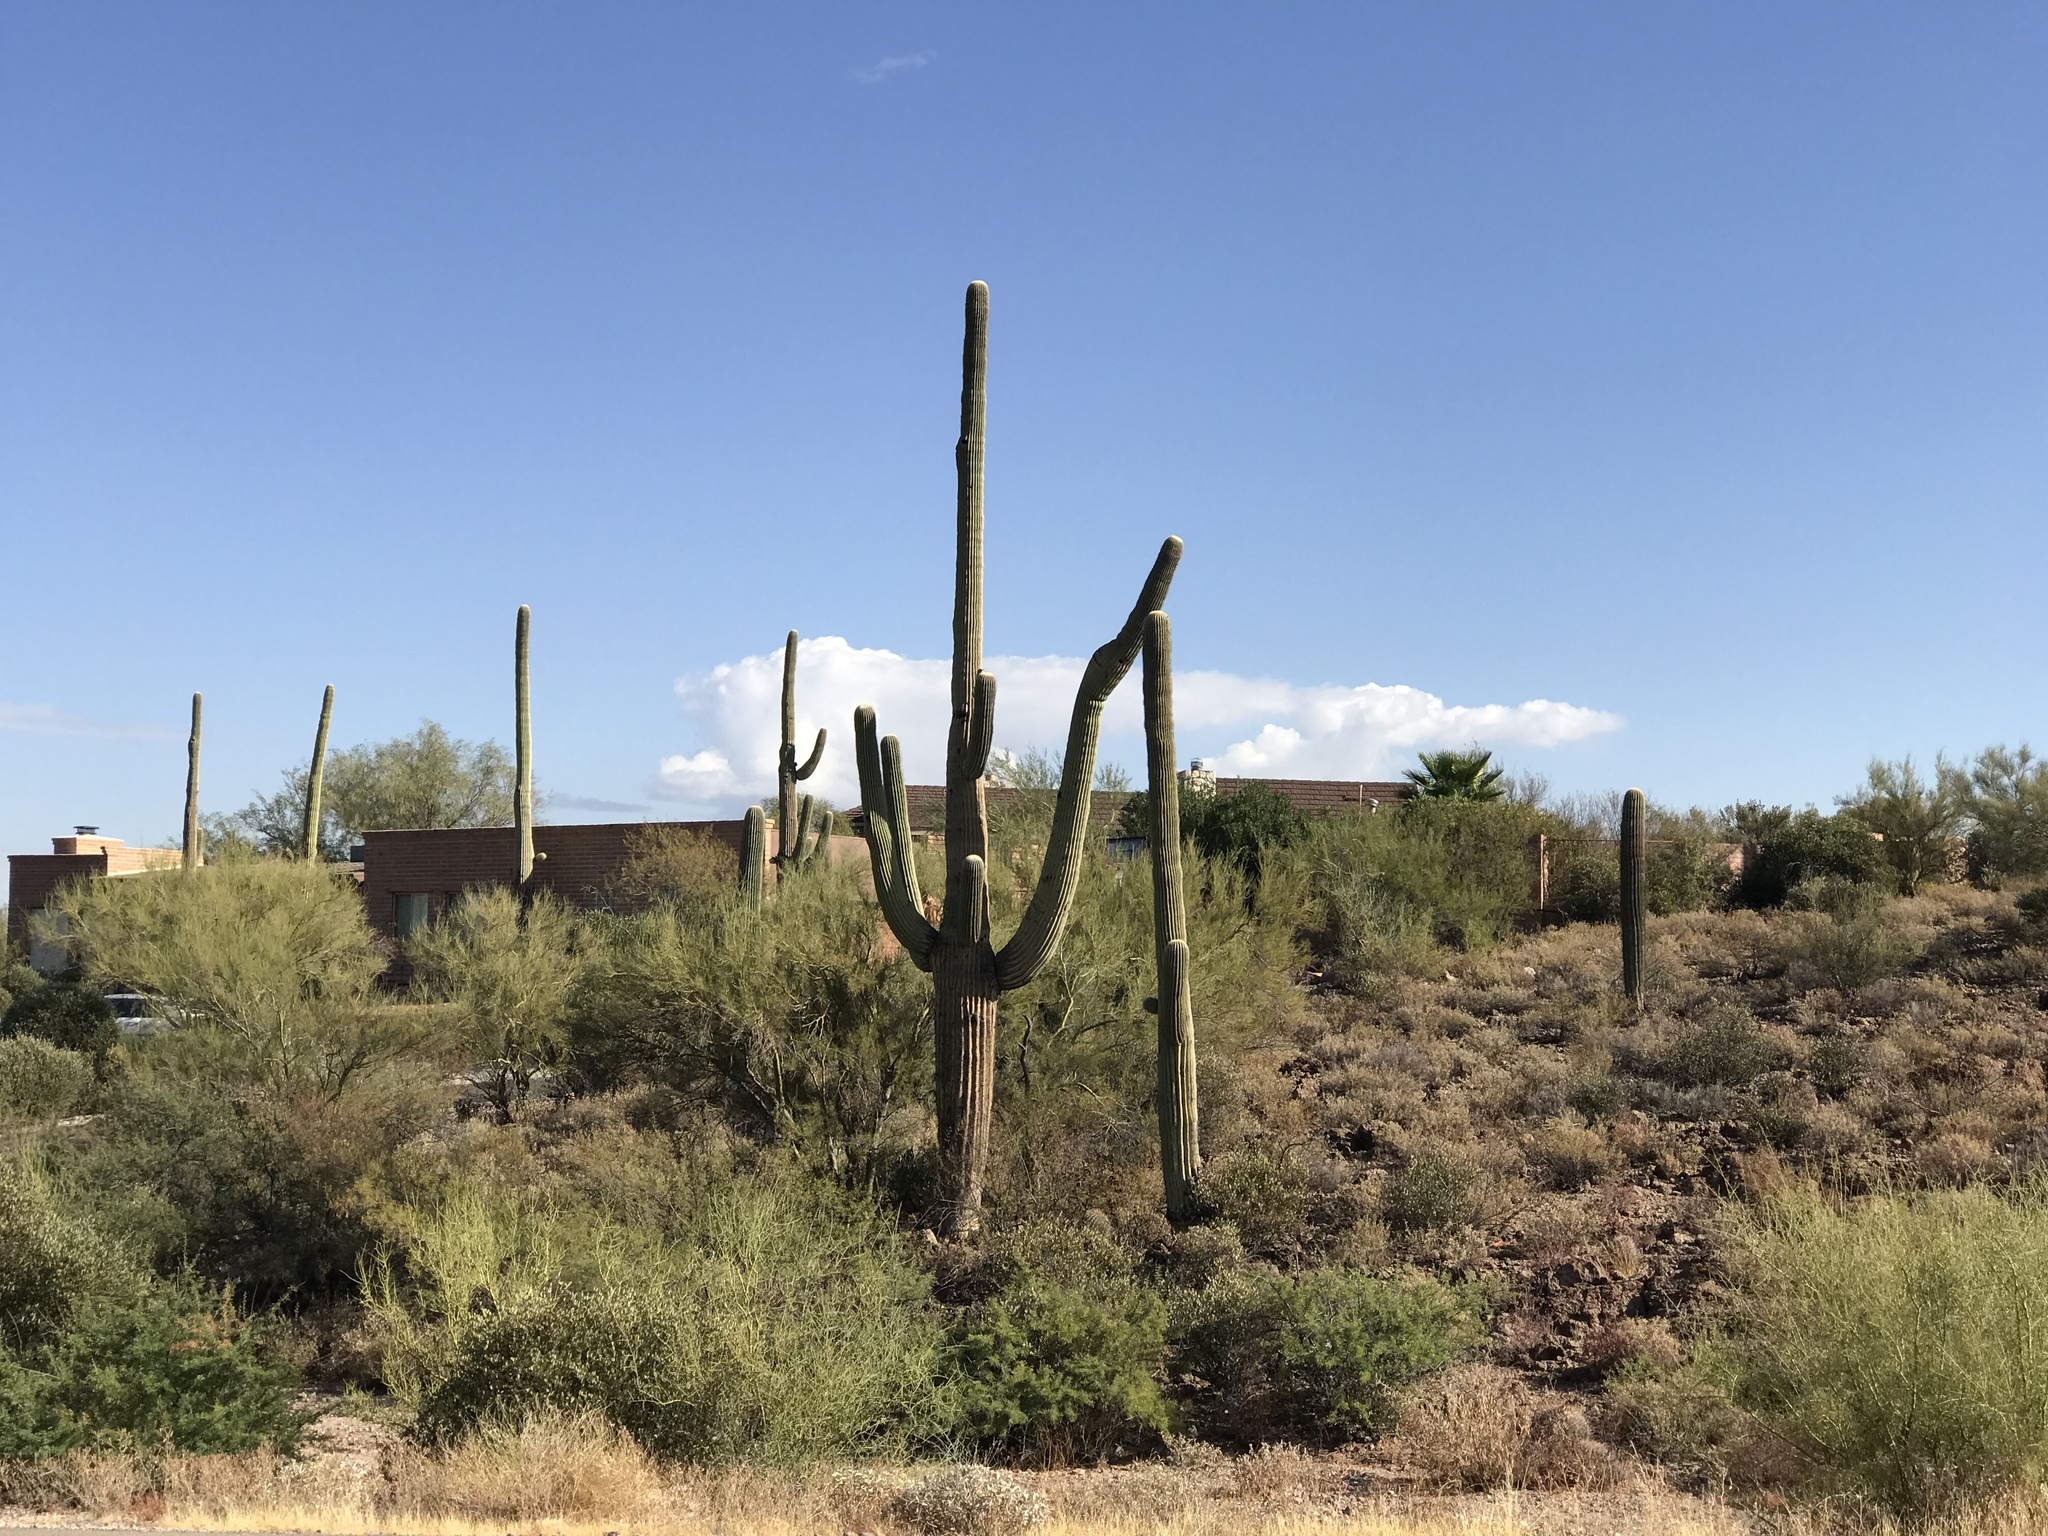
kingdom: Plantae
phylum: Tracheophyta
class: Magnoliopsida
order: Caryophyllales
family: Cactaceae
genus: Carnegiea
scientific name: Carnegiea gigantea
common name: Saguaro
